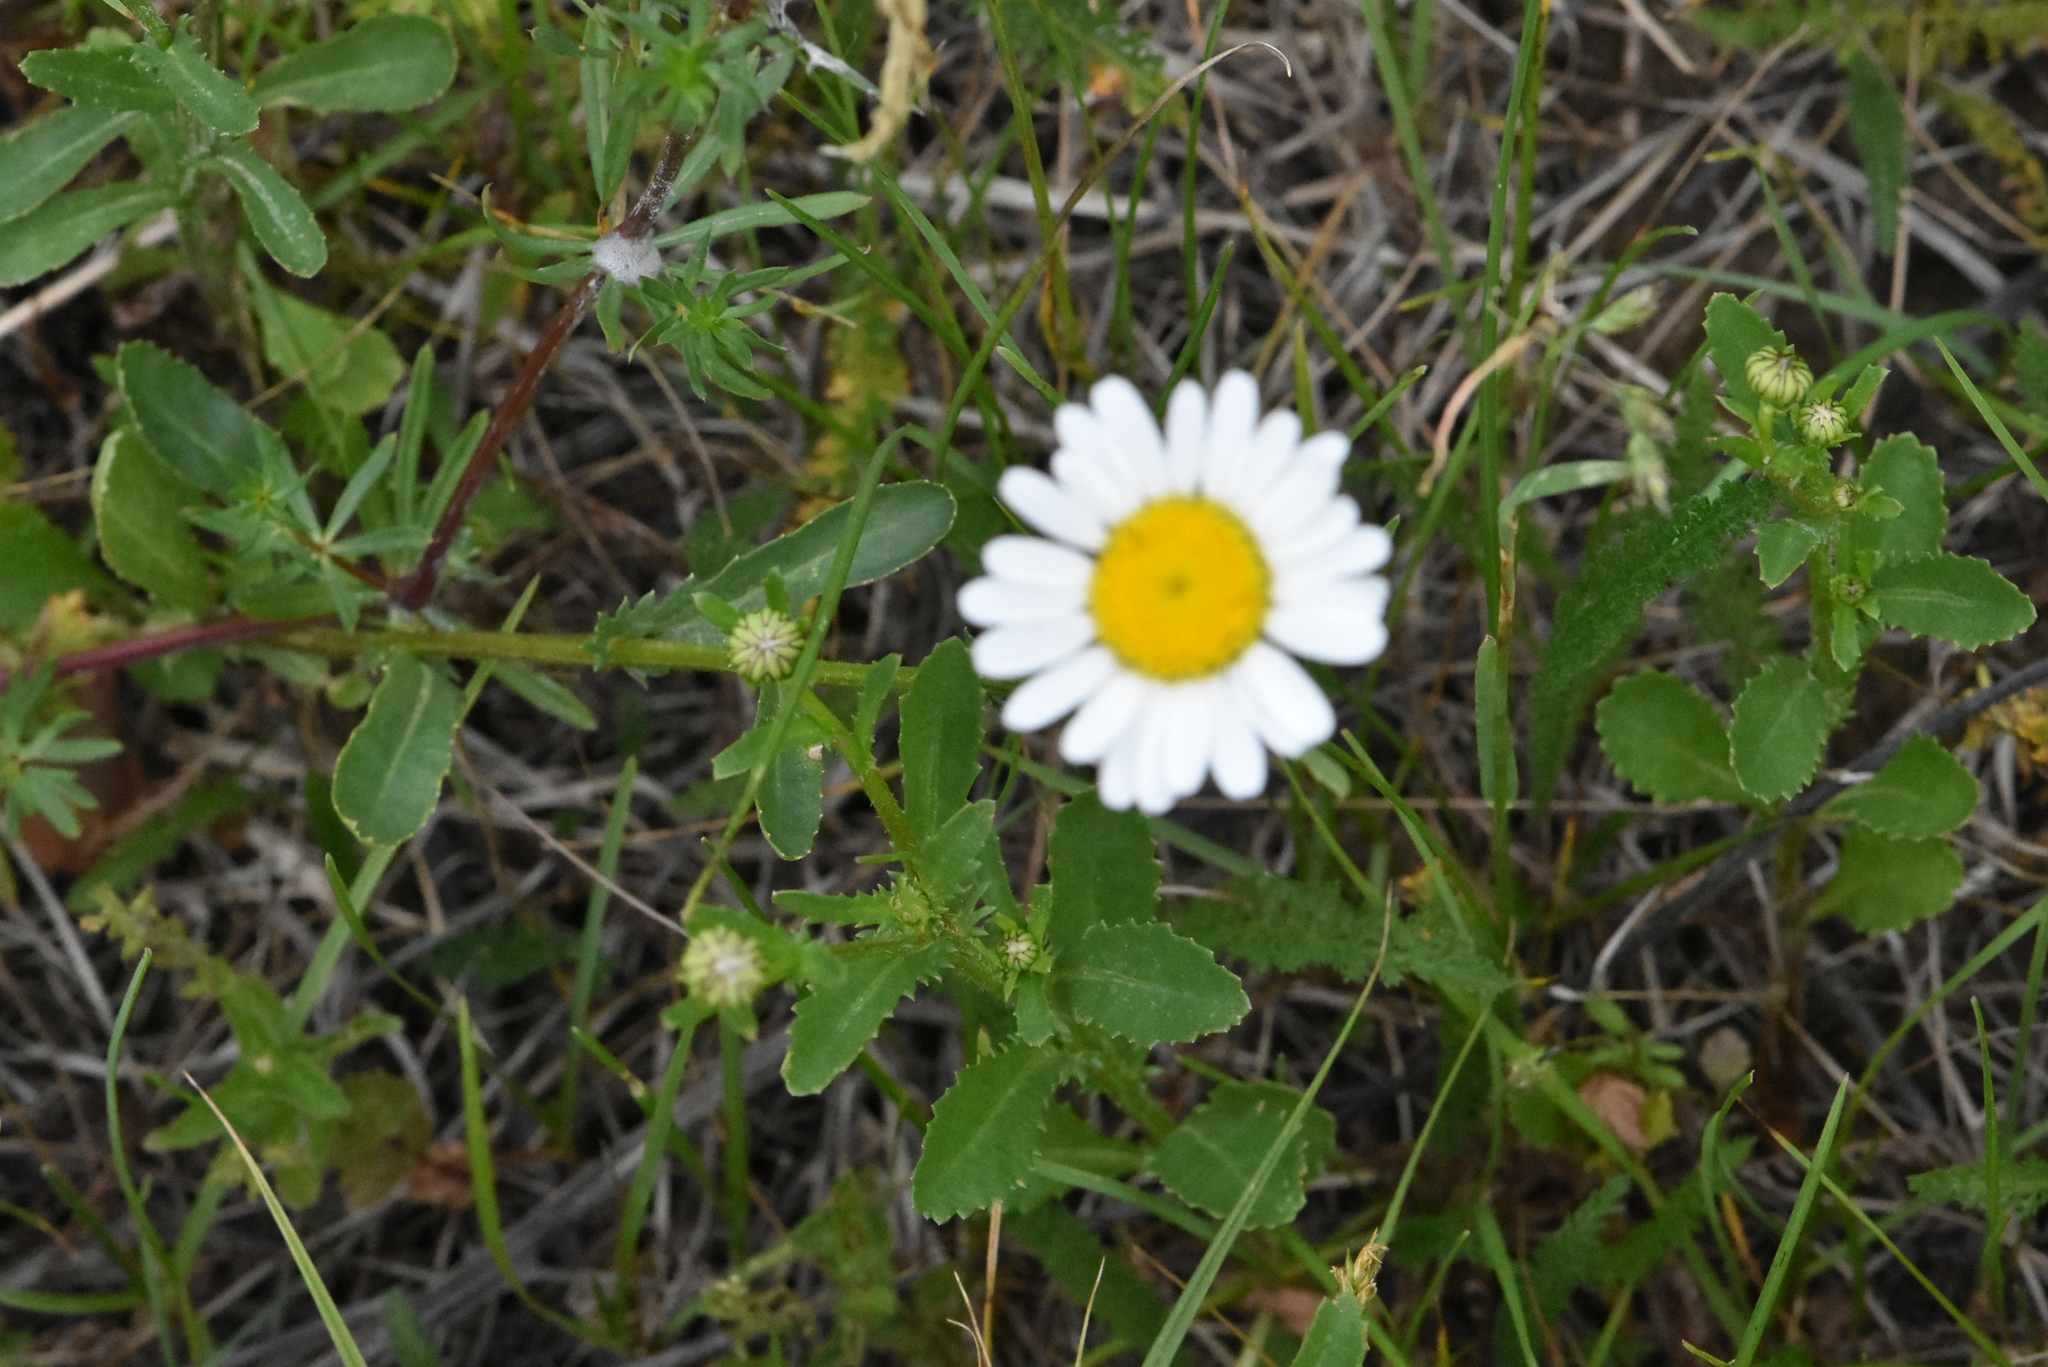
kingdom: Plantae
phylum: Tracheophyta
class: Magnoliopsida
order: Asterales
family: Asteraceae
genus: Leucanthemum
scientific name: Leucanthemum vulgare
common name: Oxeye daisy
